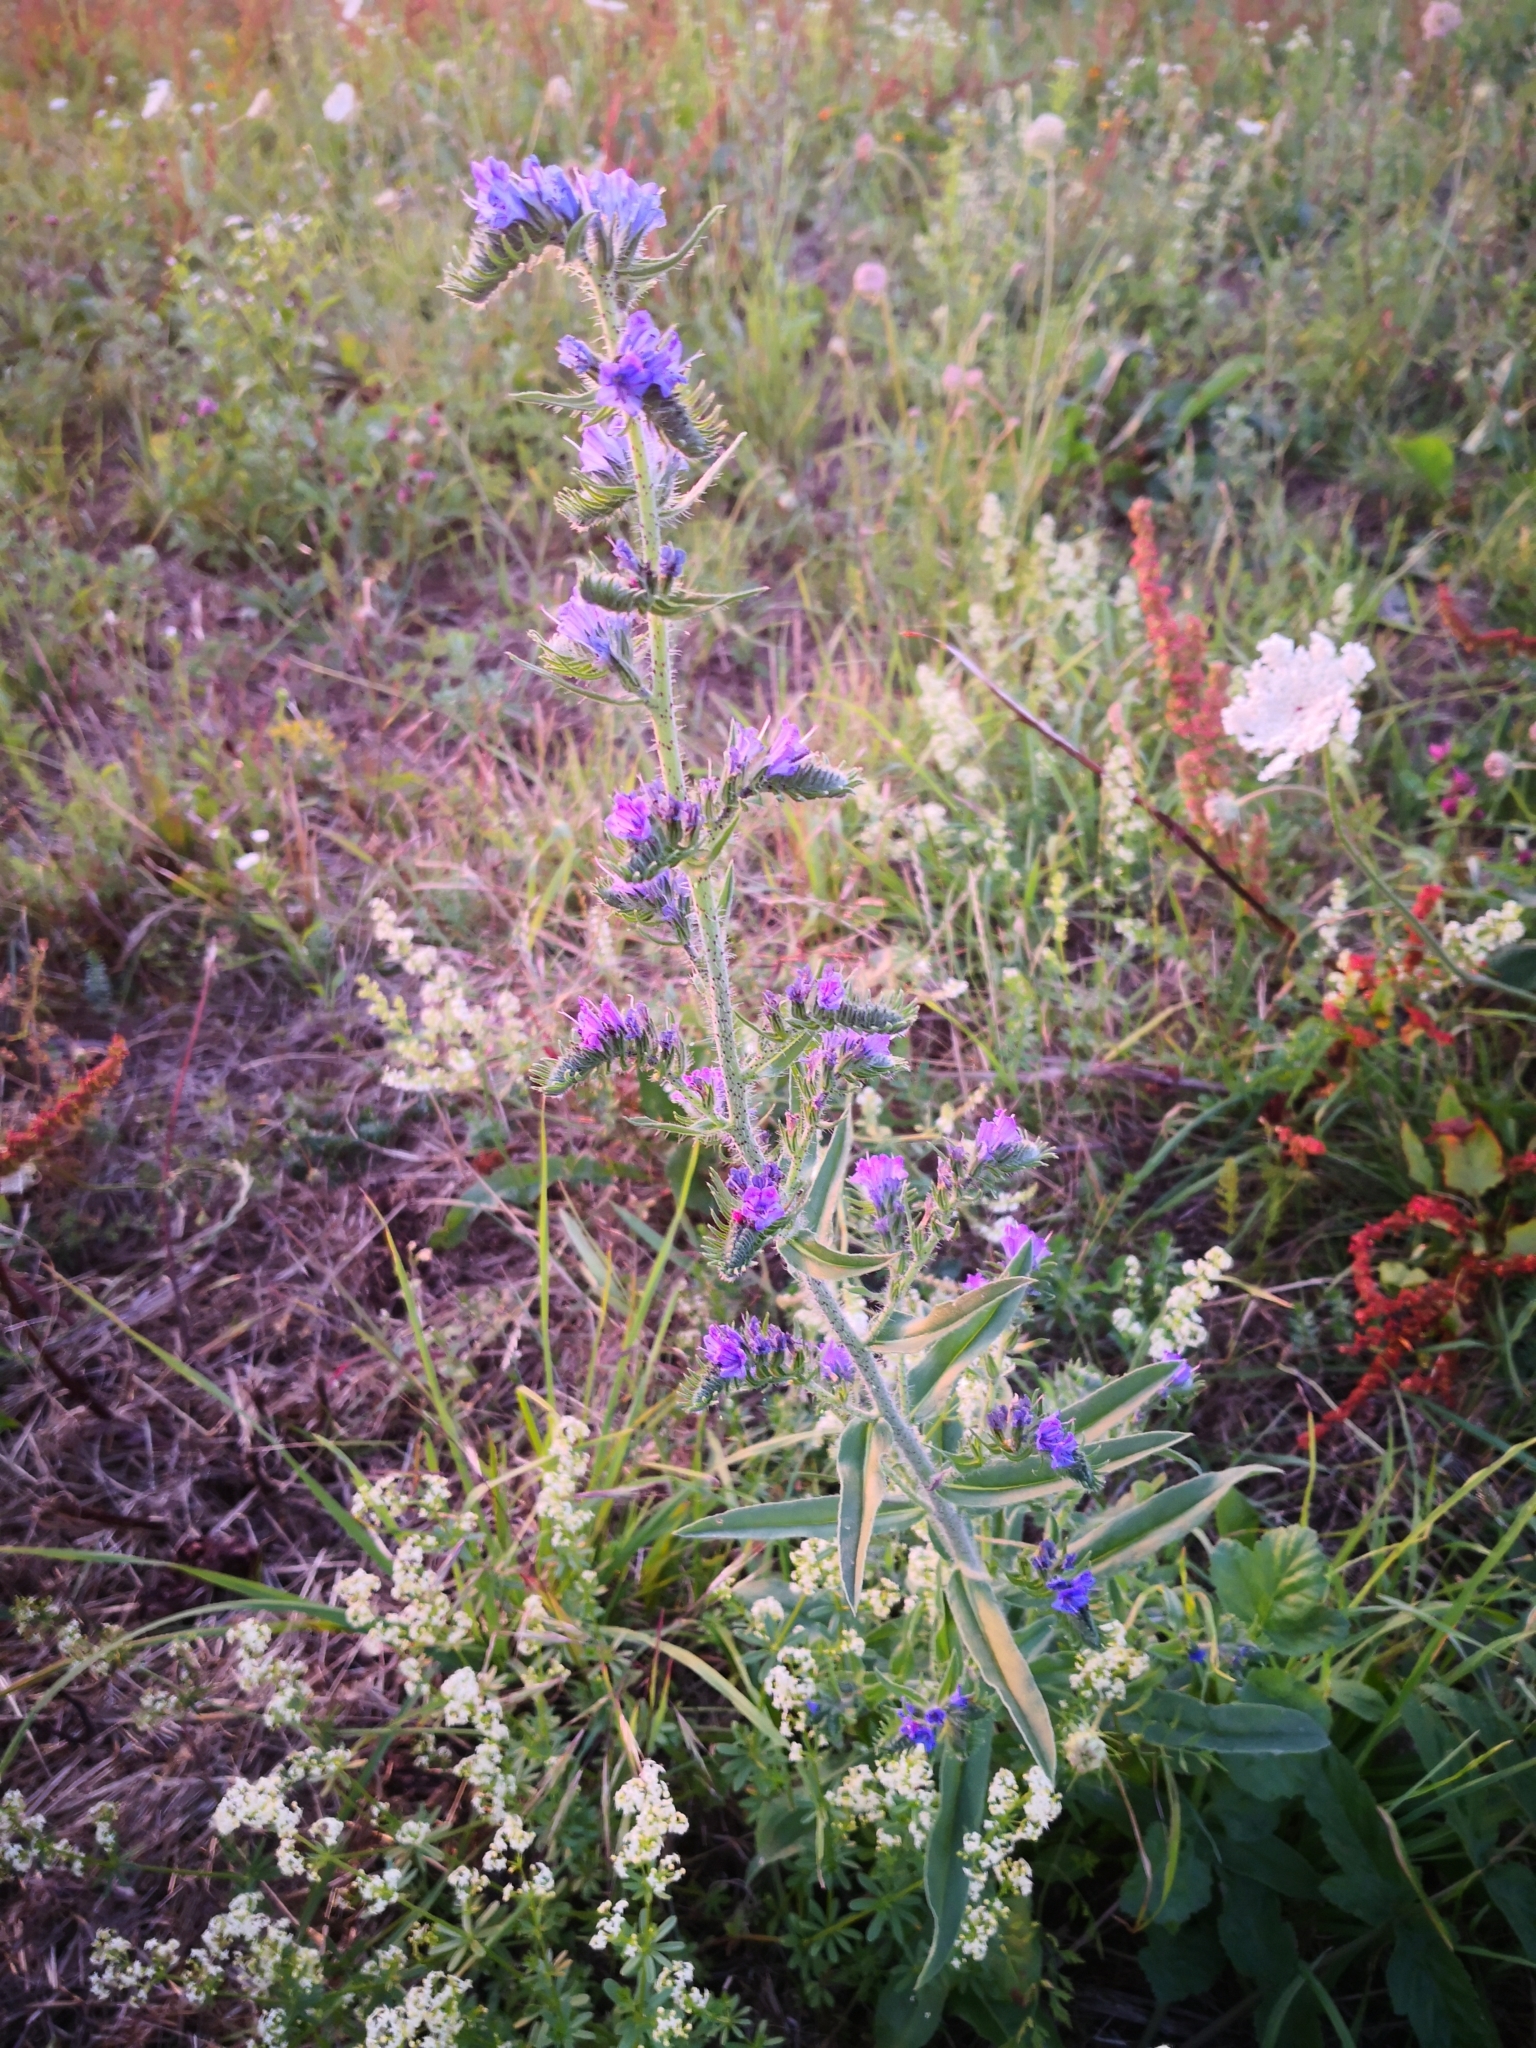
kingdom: Plantae
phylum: Tracheophyta
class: Magnoliopsida
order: Boraginales
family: Boraginaceae
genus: Echium
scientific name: Echium vulgare
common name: Common viper's bugloss
